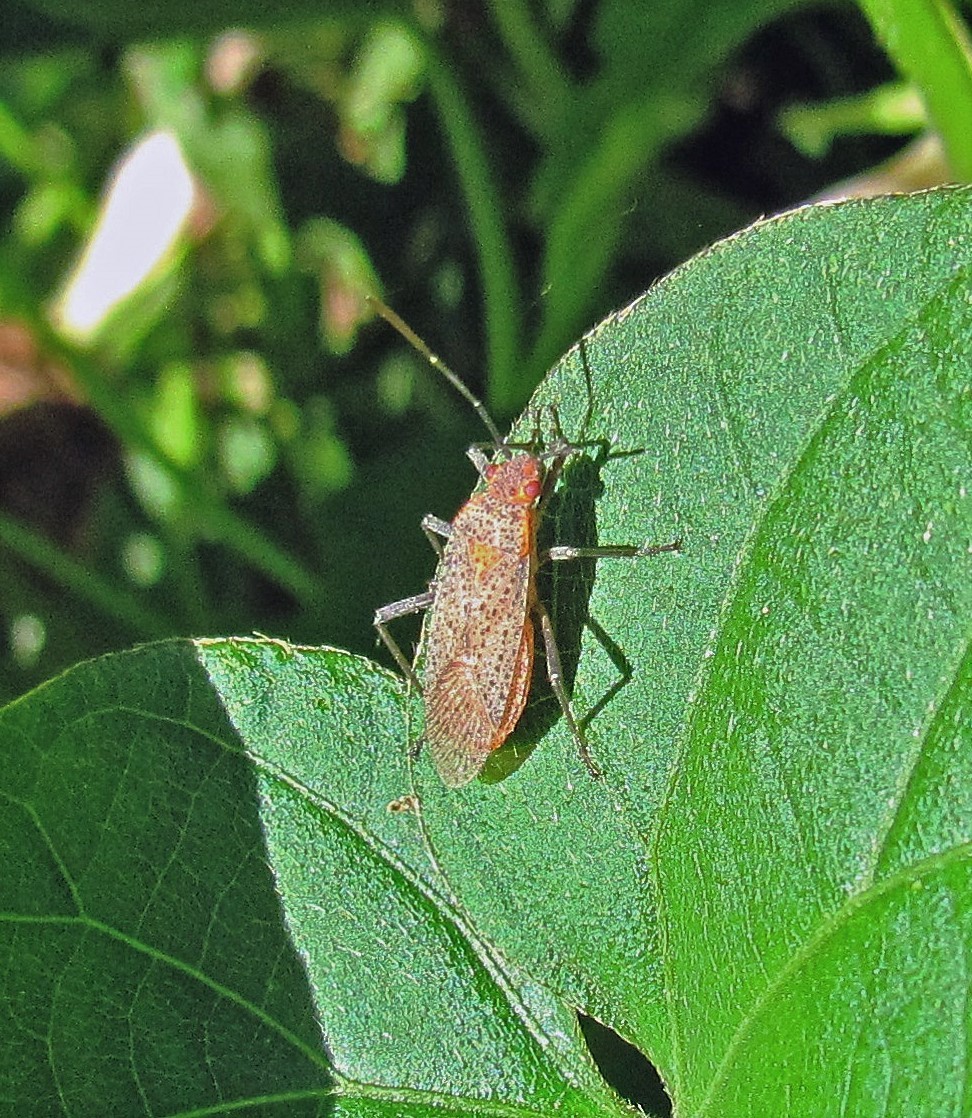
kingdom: Animalia
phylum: Arthropoda
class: Insecta
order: Hemiptera
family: Rhopalidae
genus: Jadera
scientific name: Jadera coturnix
